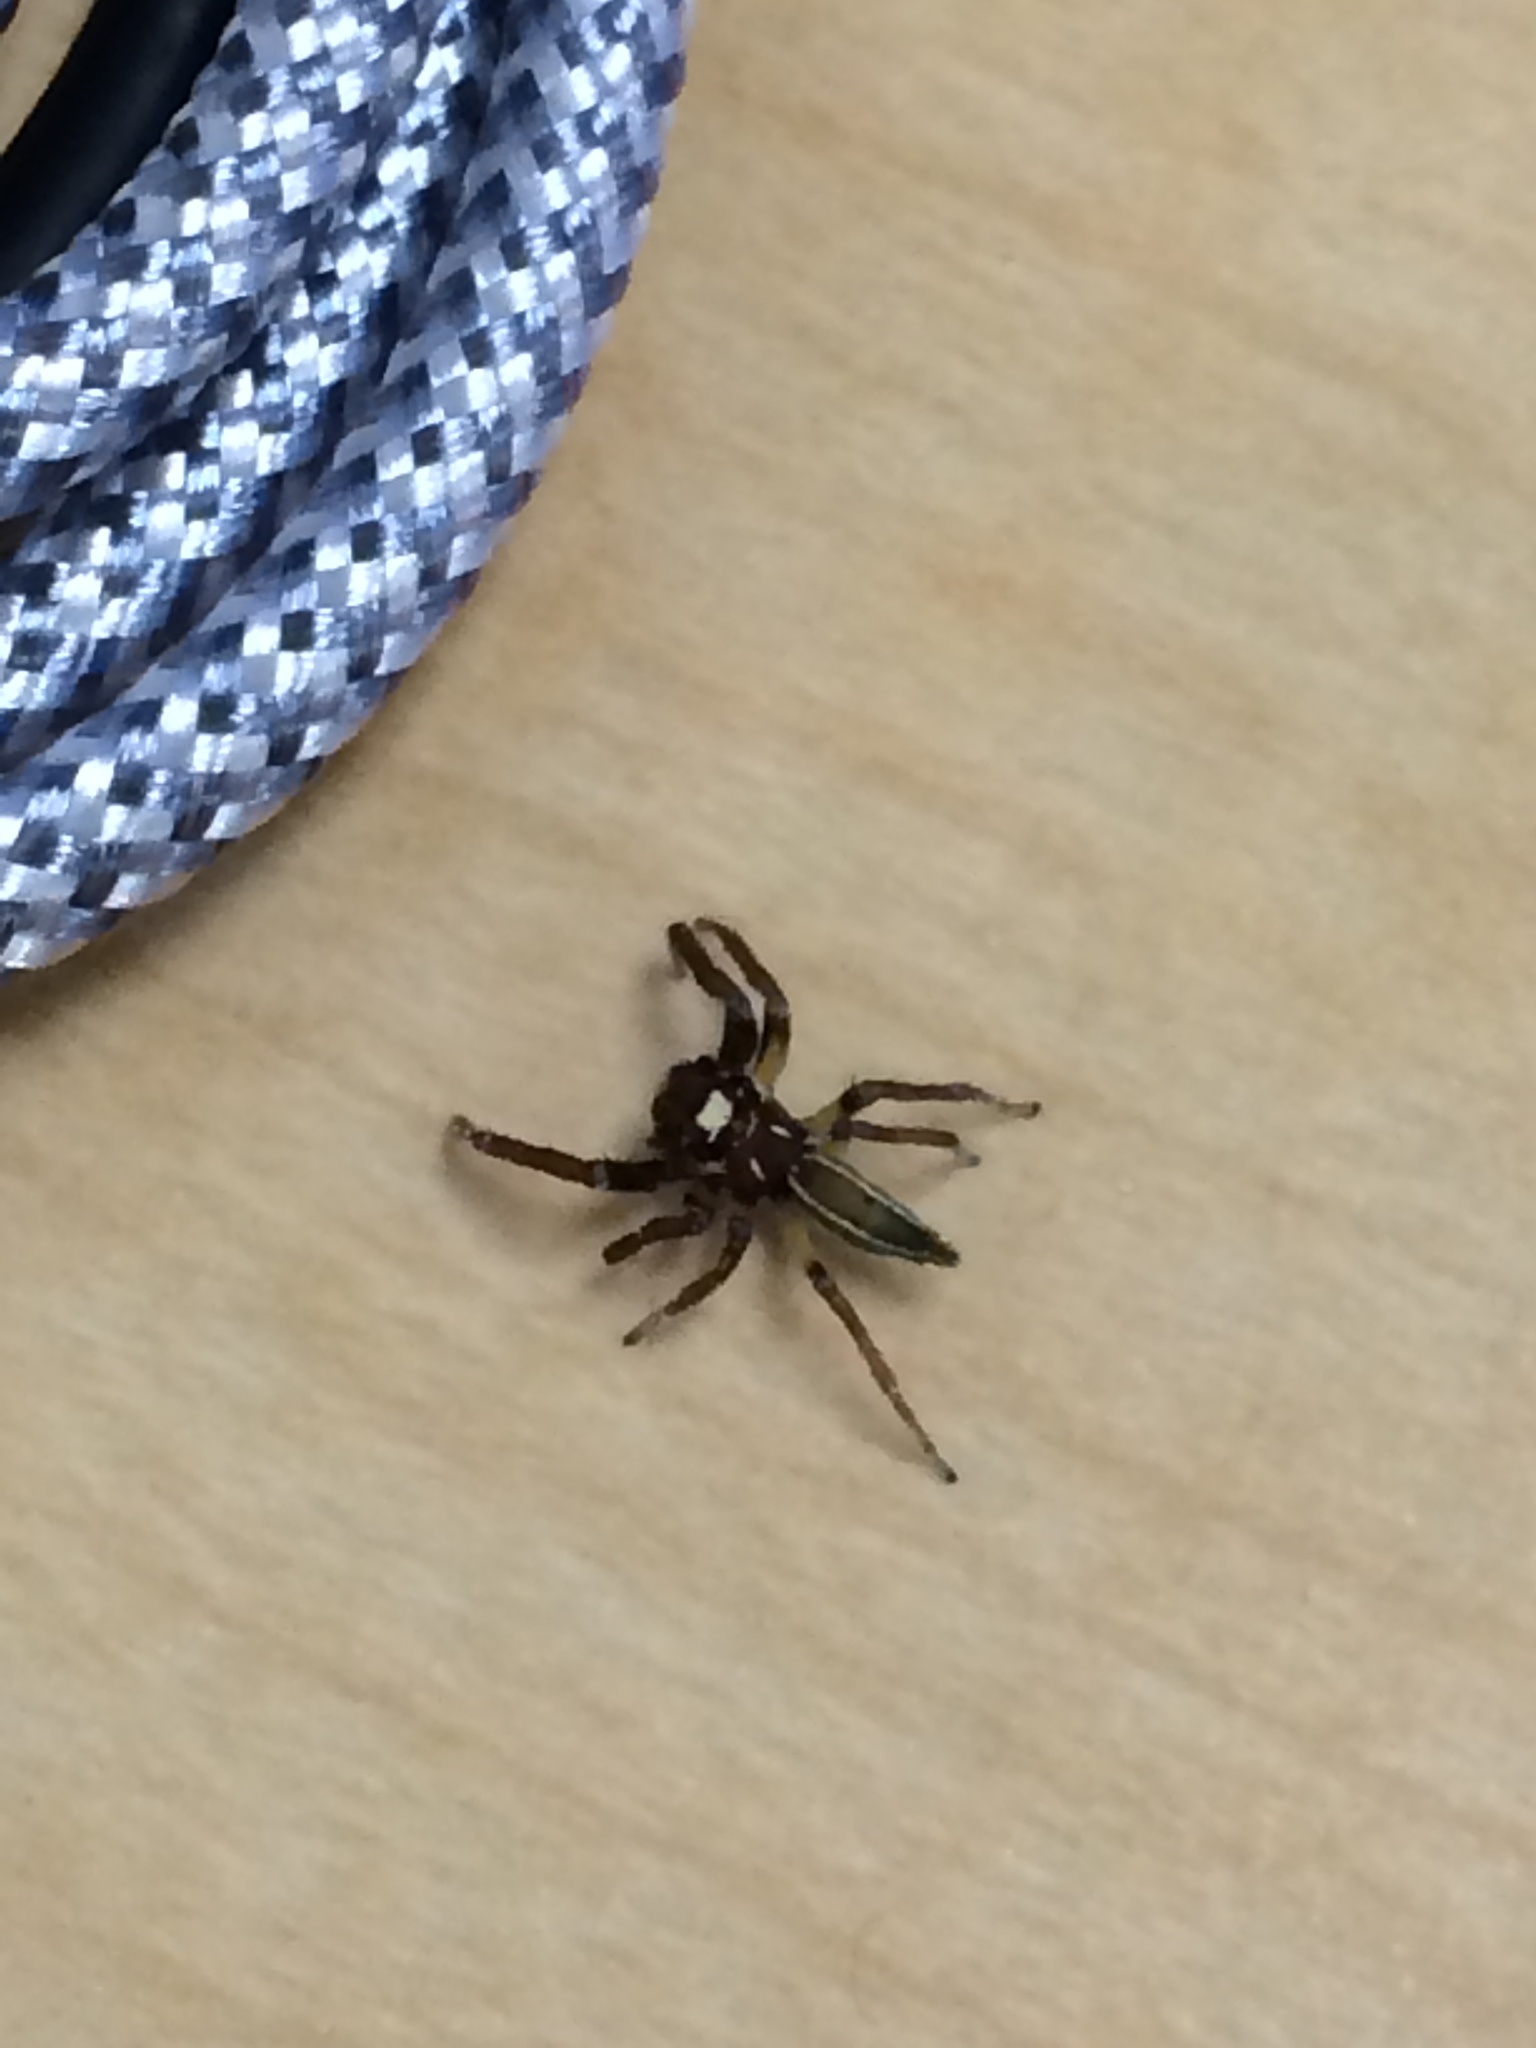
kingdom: Animalia
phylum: Arthropoda
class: Arachnida
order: Araneae
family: Salticidae
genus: Colonus
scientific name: Colonus sylvanus
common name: Jumping spiders
